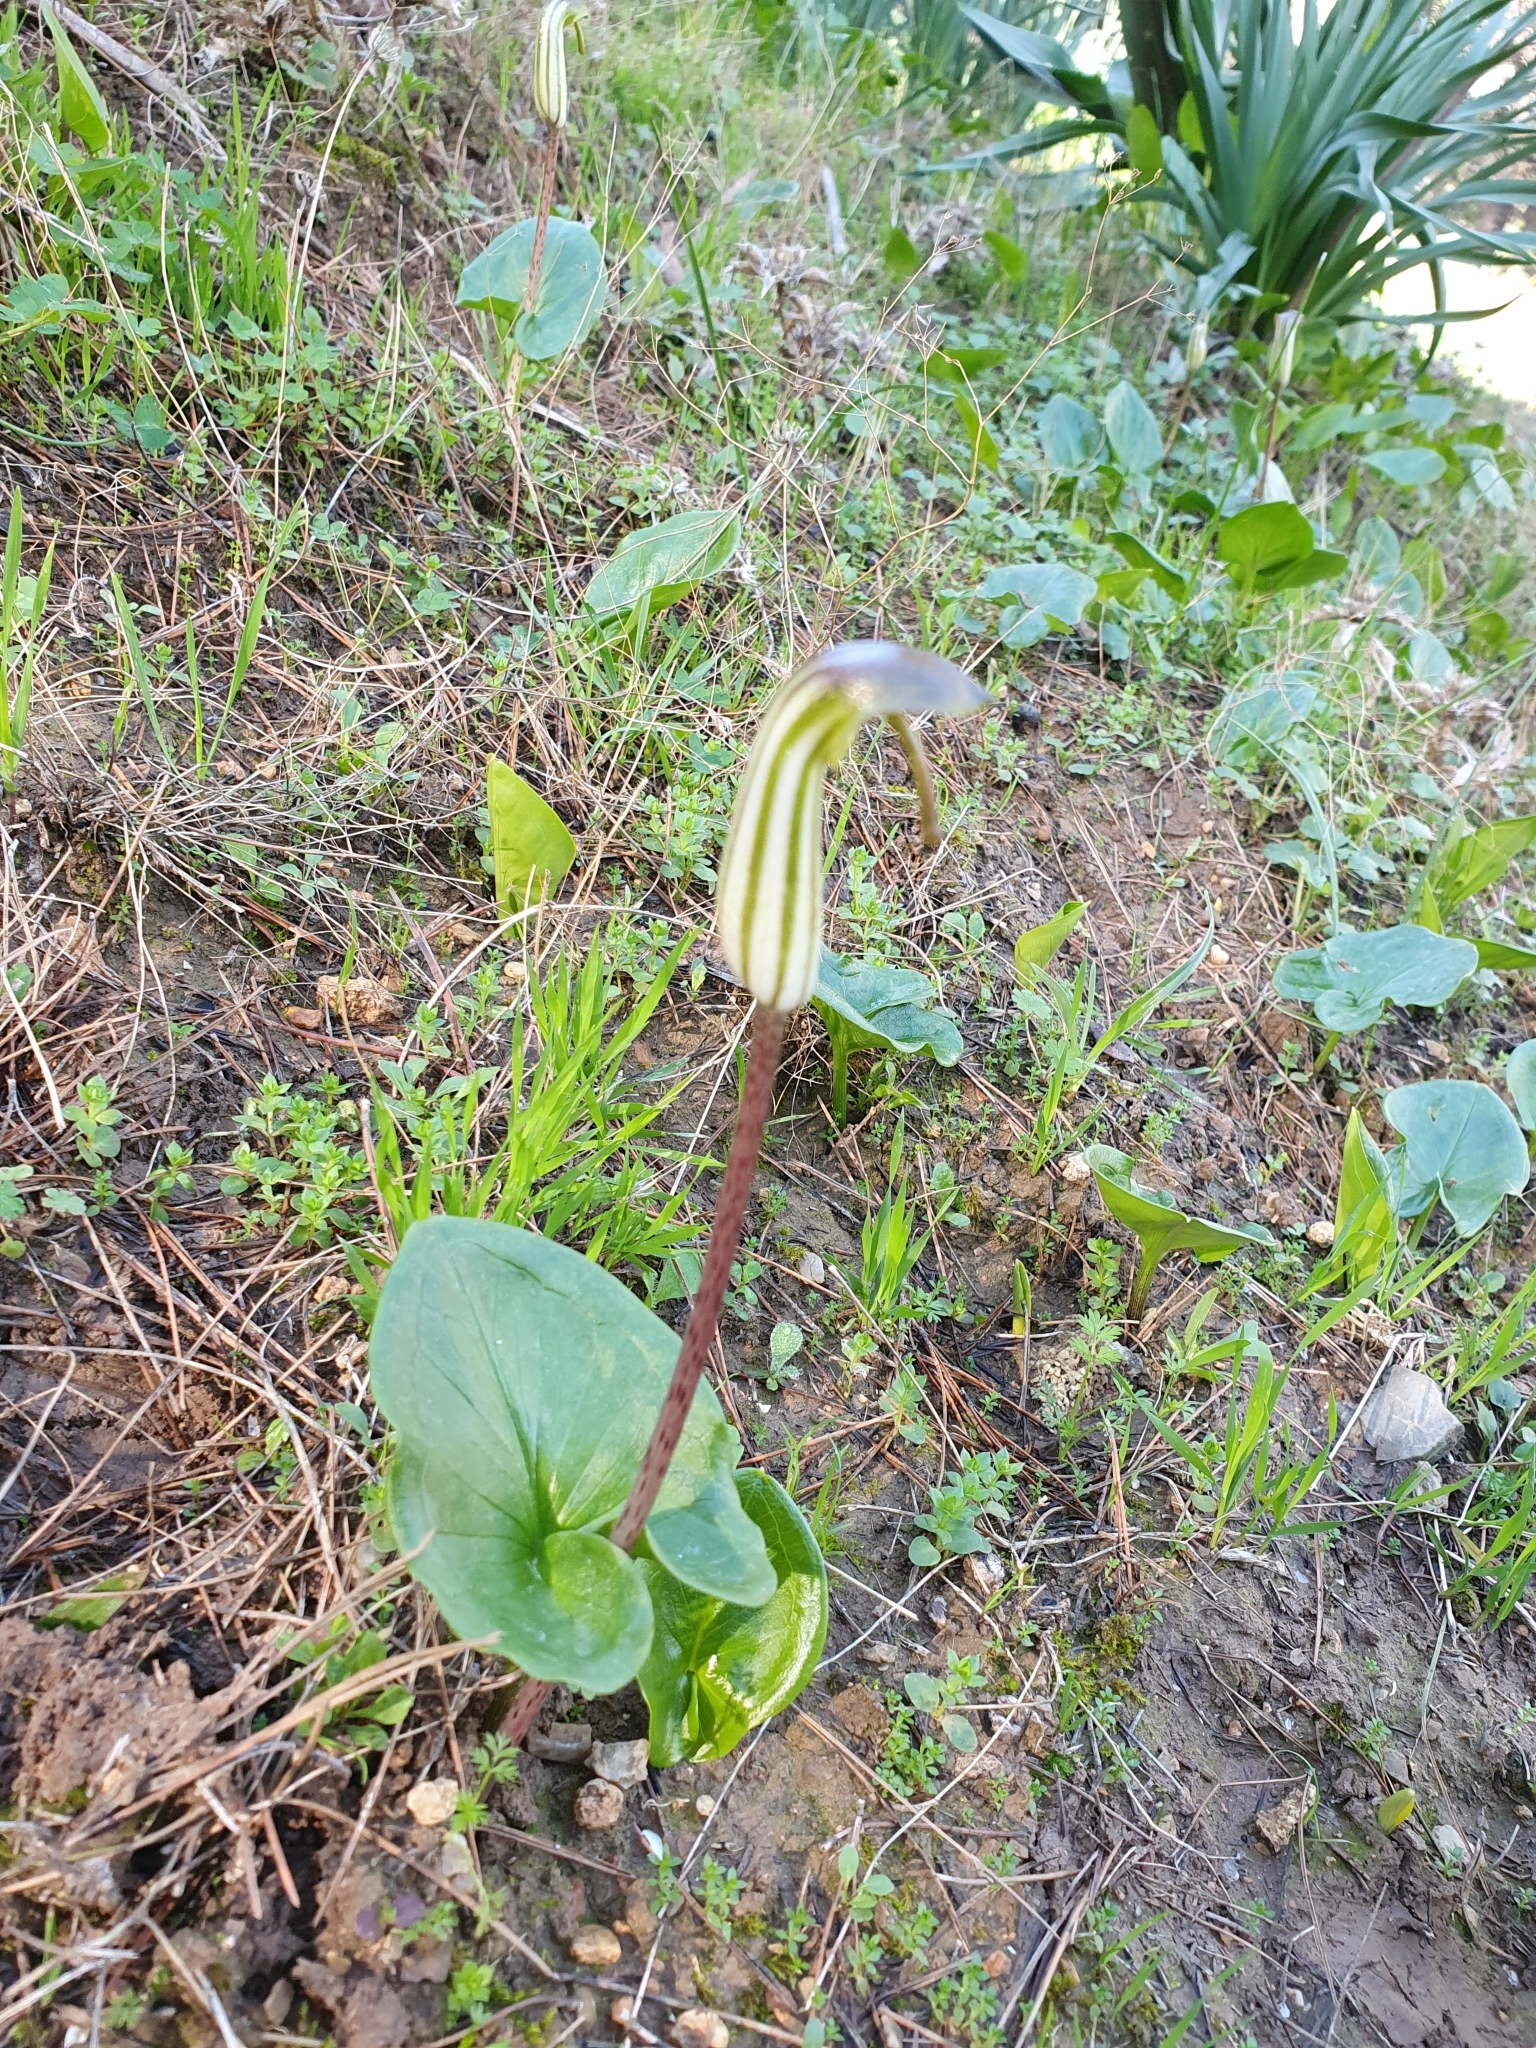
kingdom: Plantae
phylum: Tracheophyta
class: Liliopsida
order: Alismatales
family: Araceae
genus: Arisarum
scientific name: Arisarum vulgare
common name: Common arisarum
